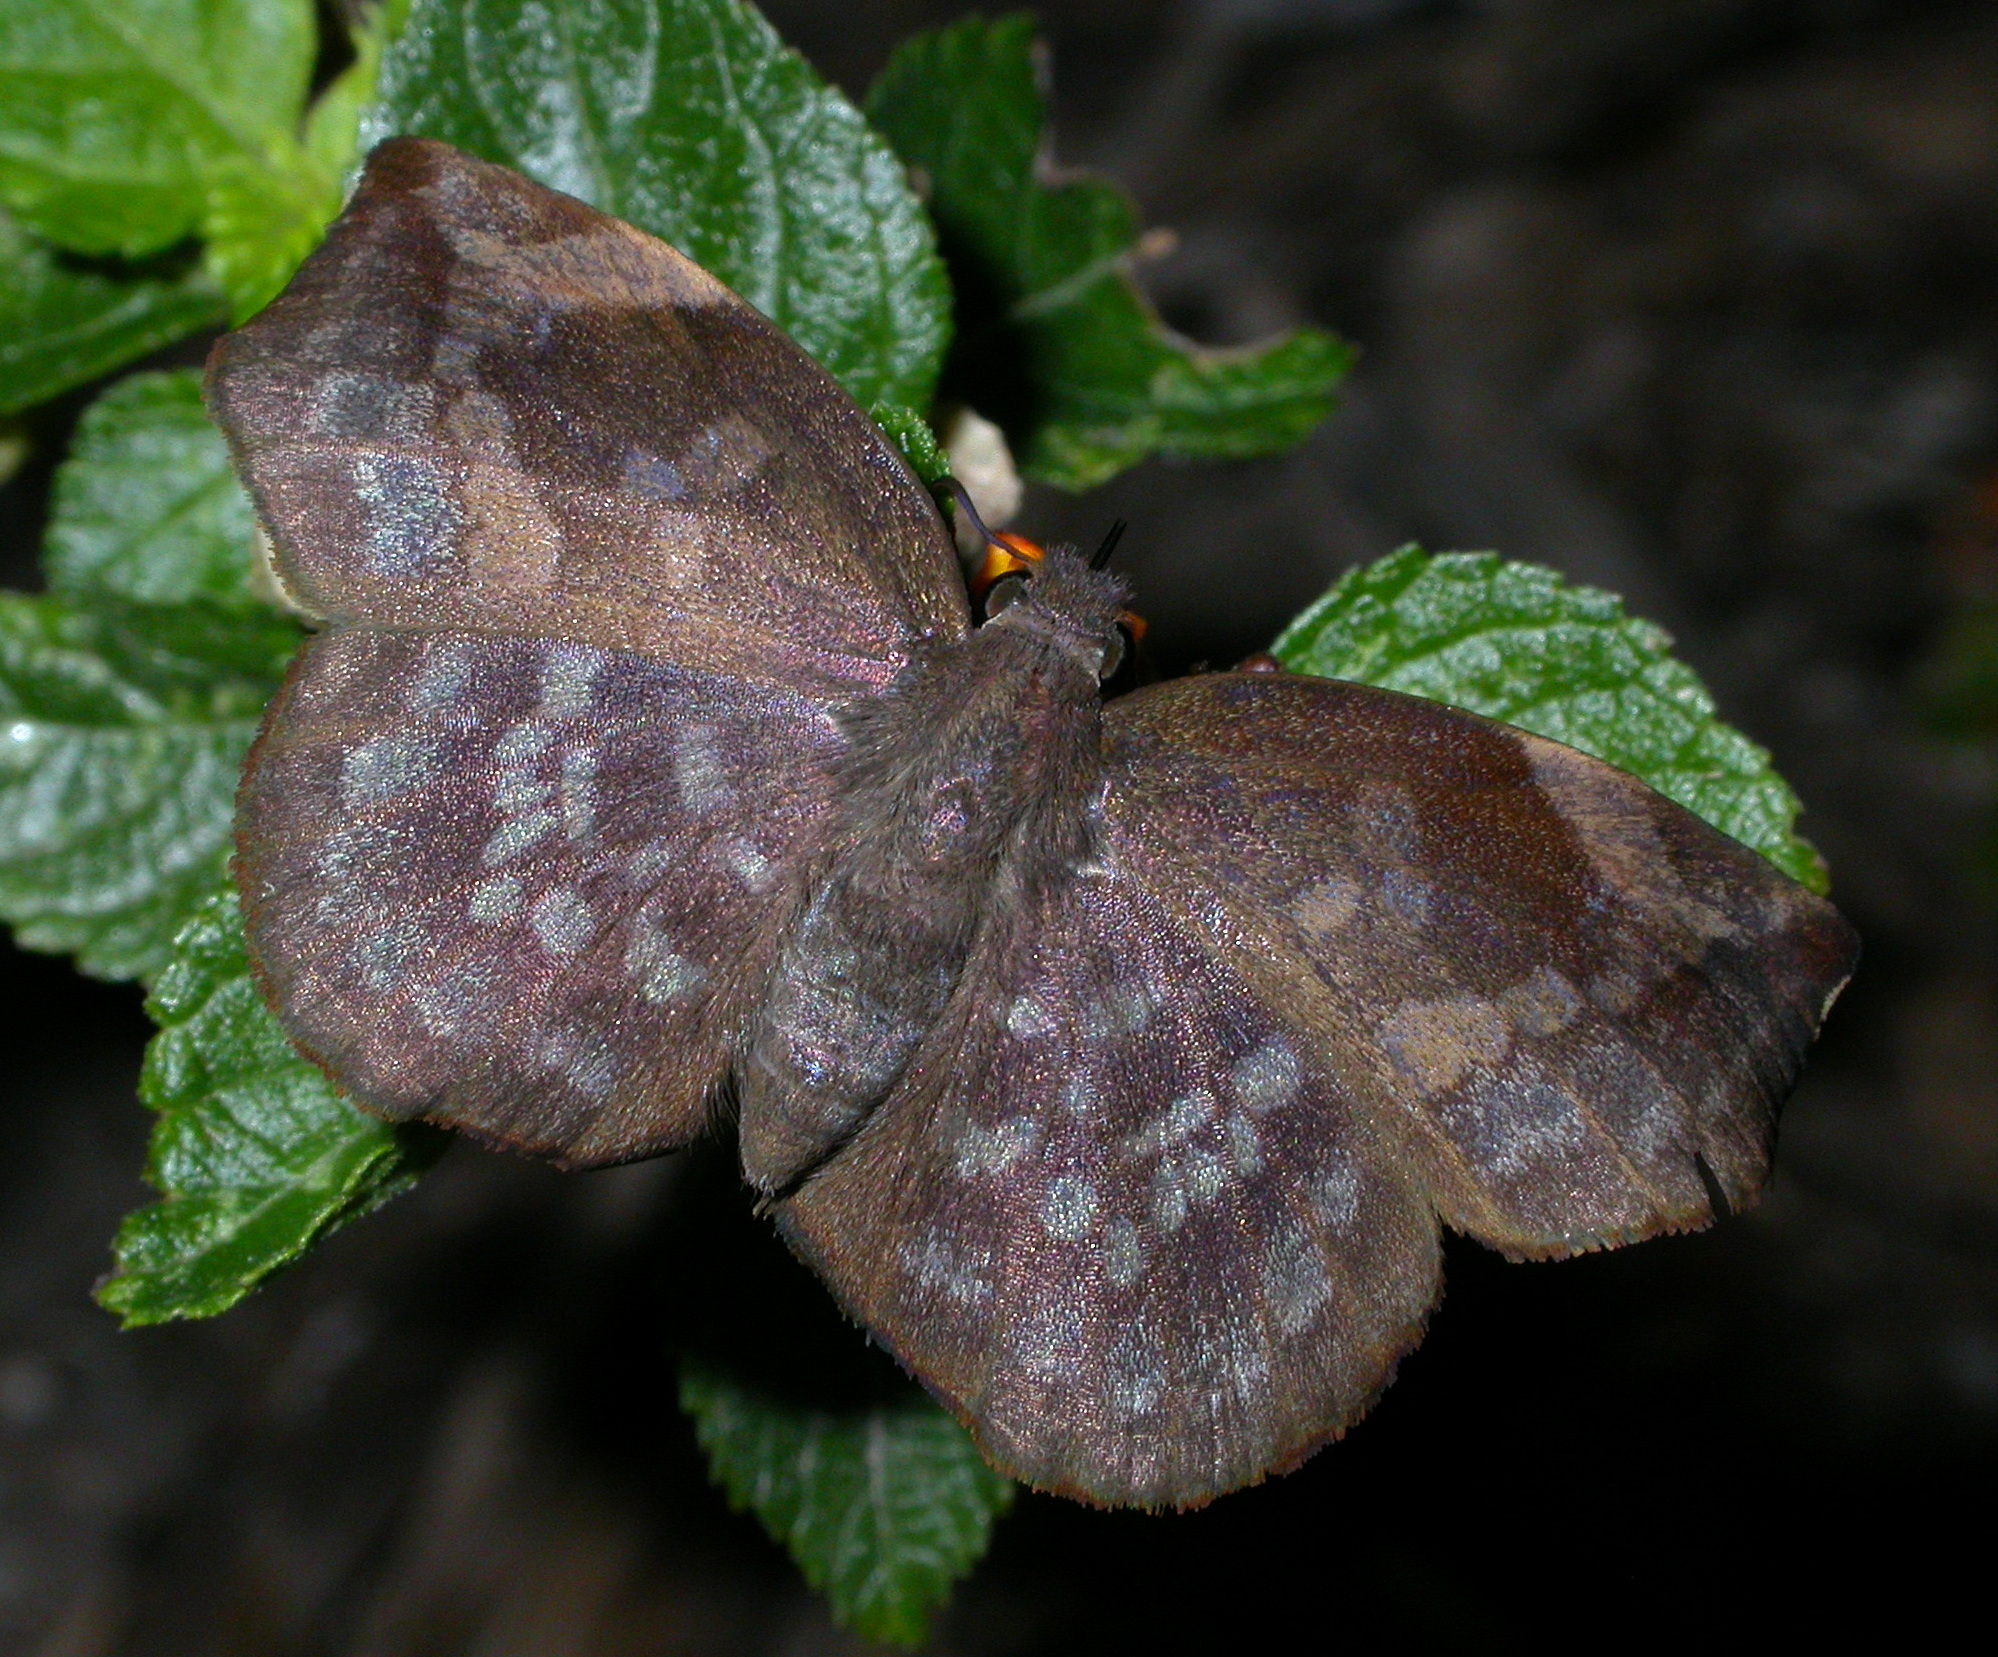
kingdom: Animalia
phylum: Arthropoda
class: Insecta
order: Lepidoptera
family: Hesperiidae
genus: Achlyodes
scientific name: Achlyodes thraso
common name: Sickle-winged skipper
